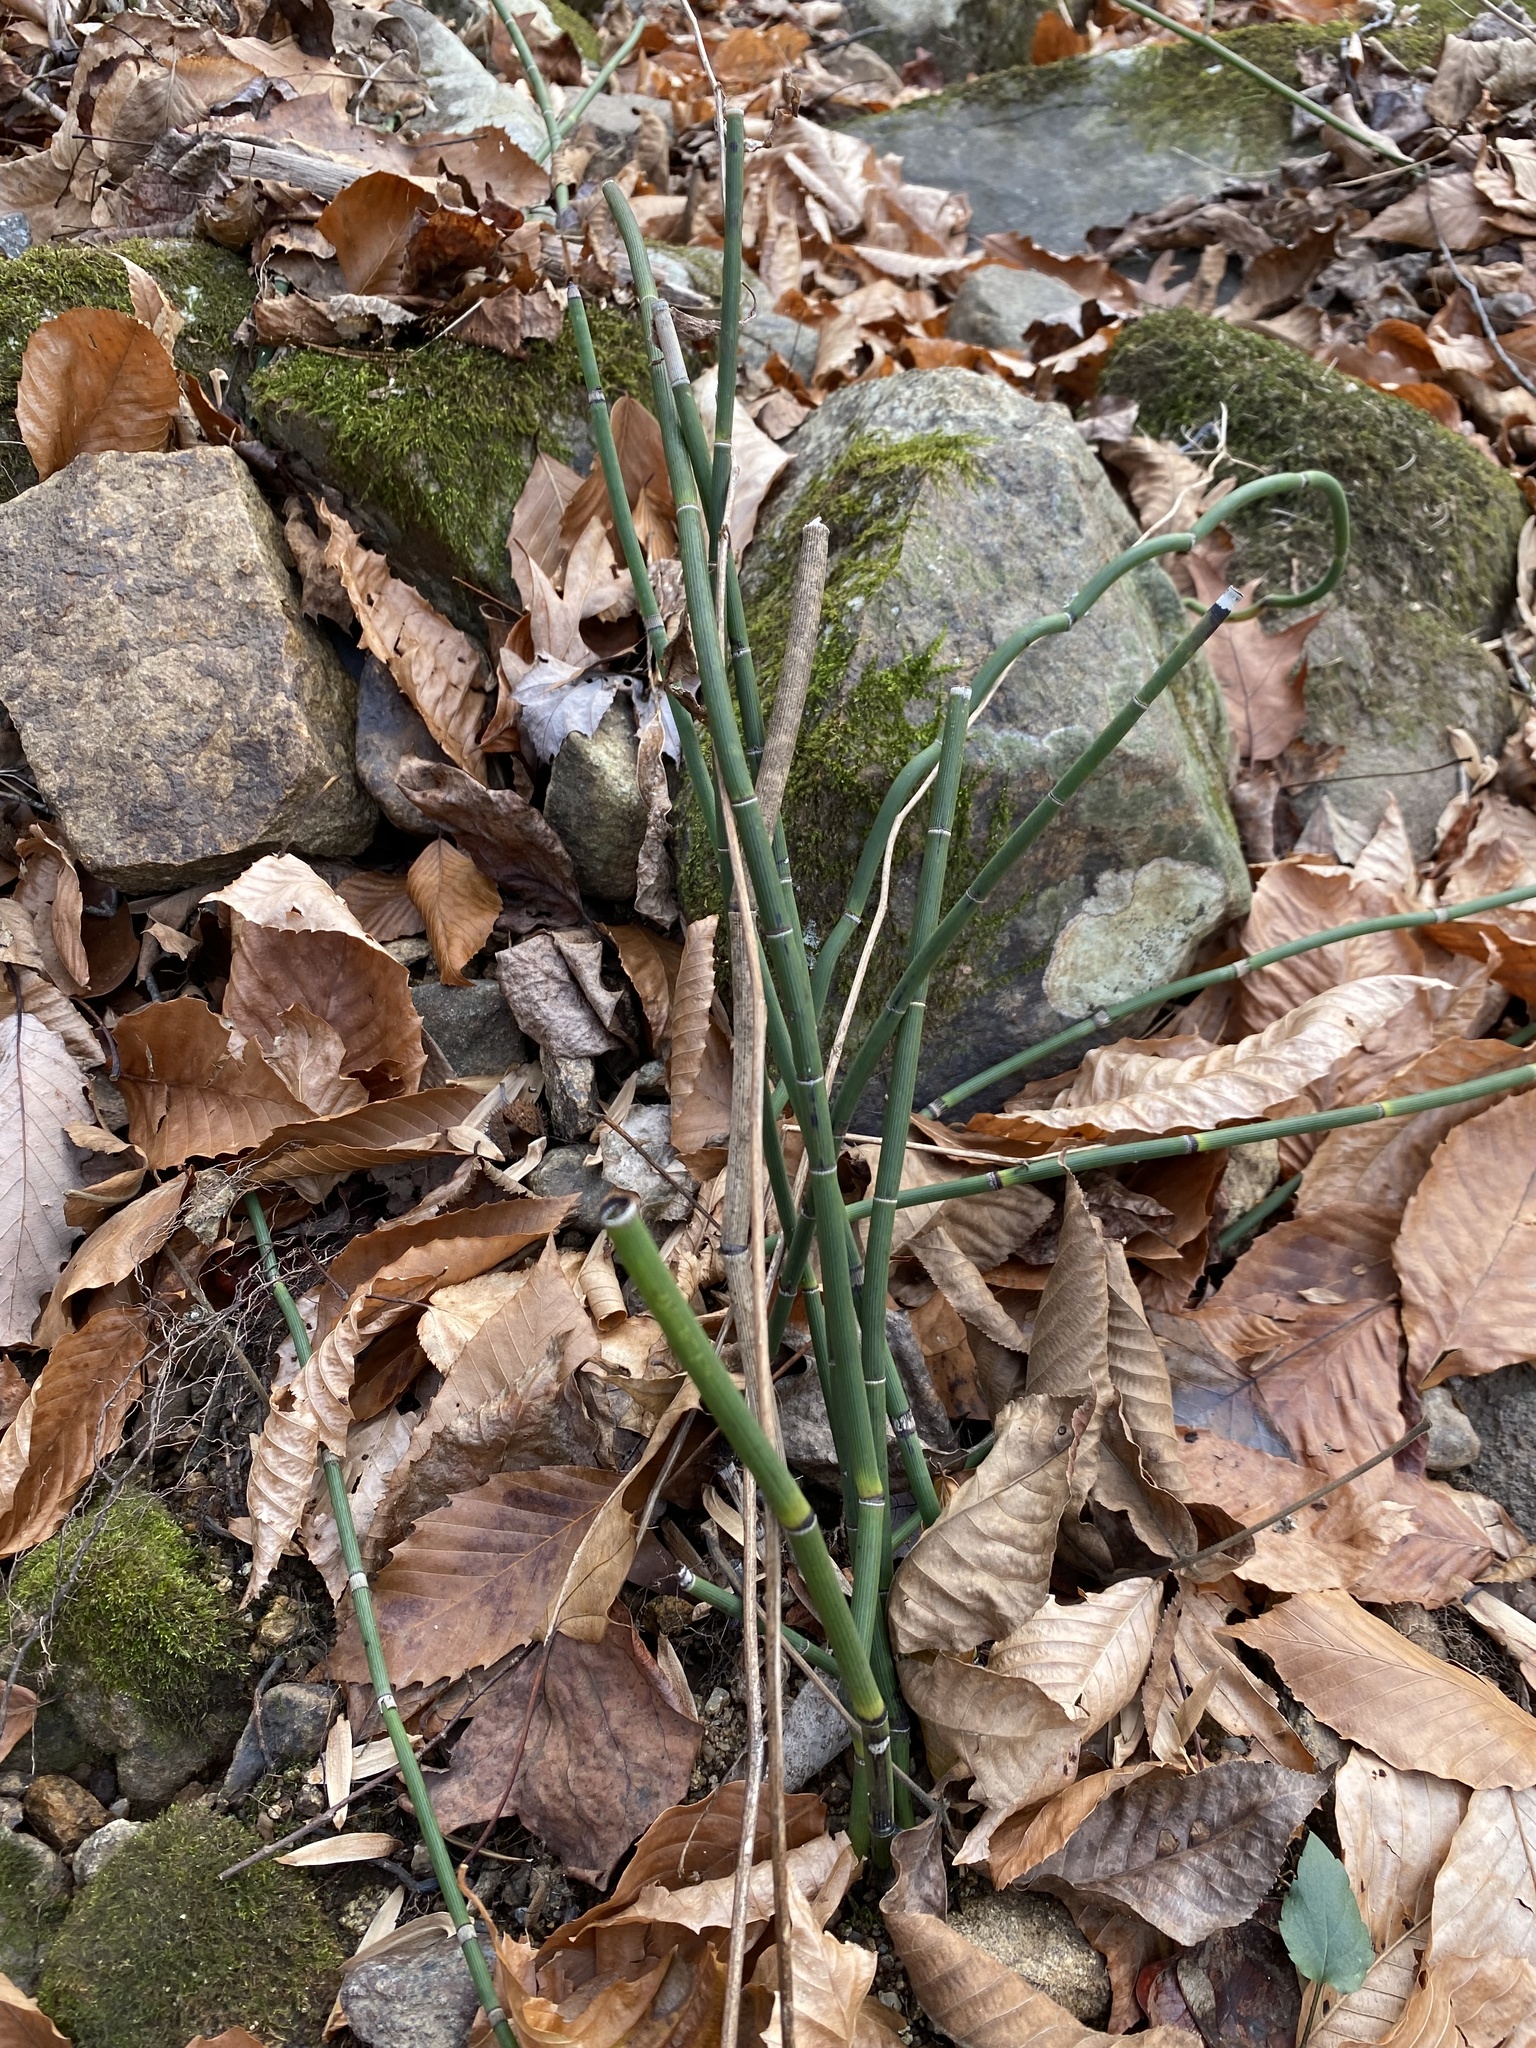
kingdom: Plantae
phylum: Tracheophyta
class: Polypodiopsida
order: Equisetales
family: Equisetaceae
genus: Equisetum
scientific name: Equisetum praealtum
